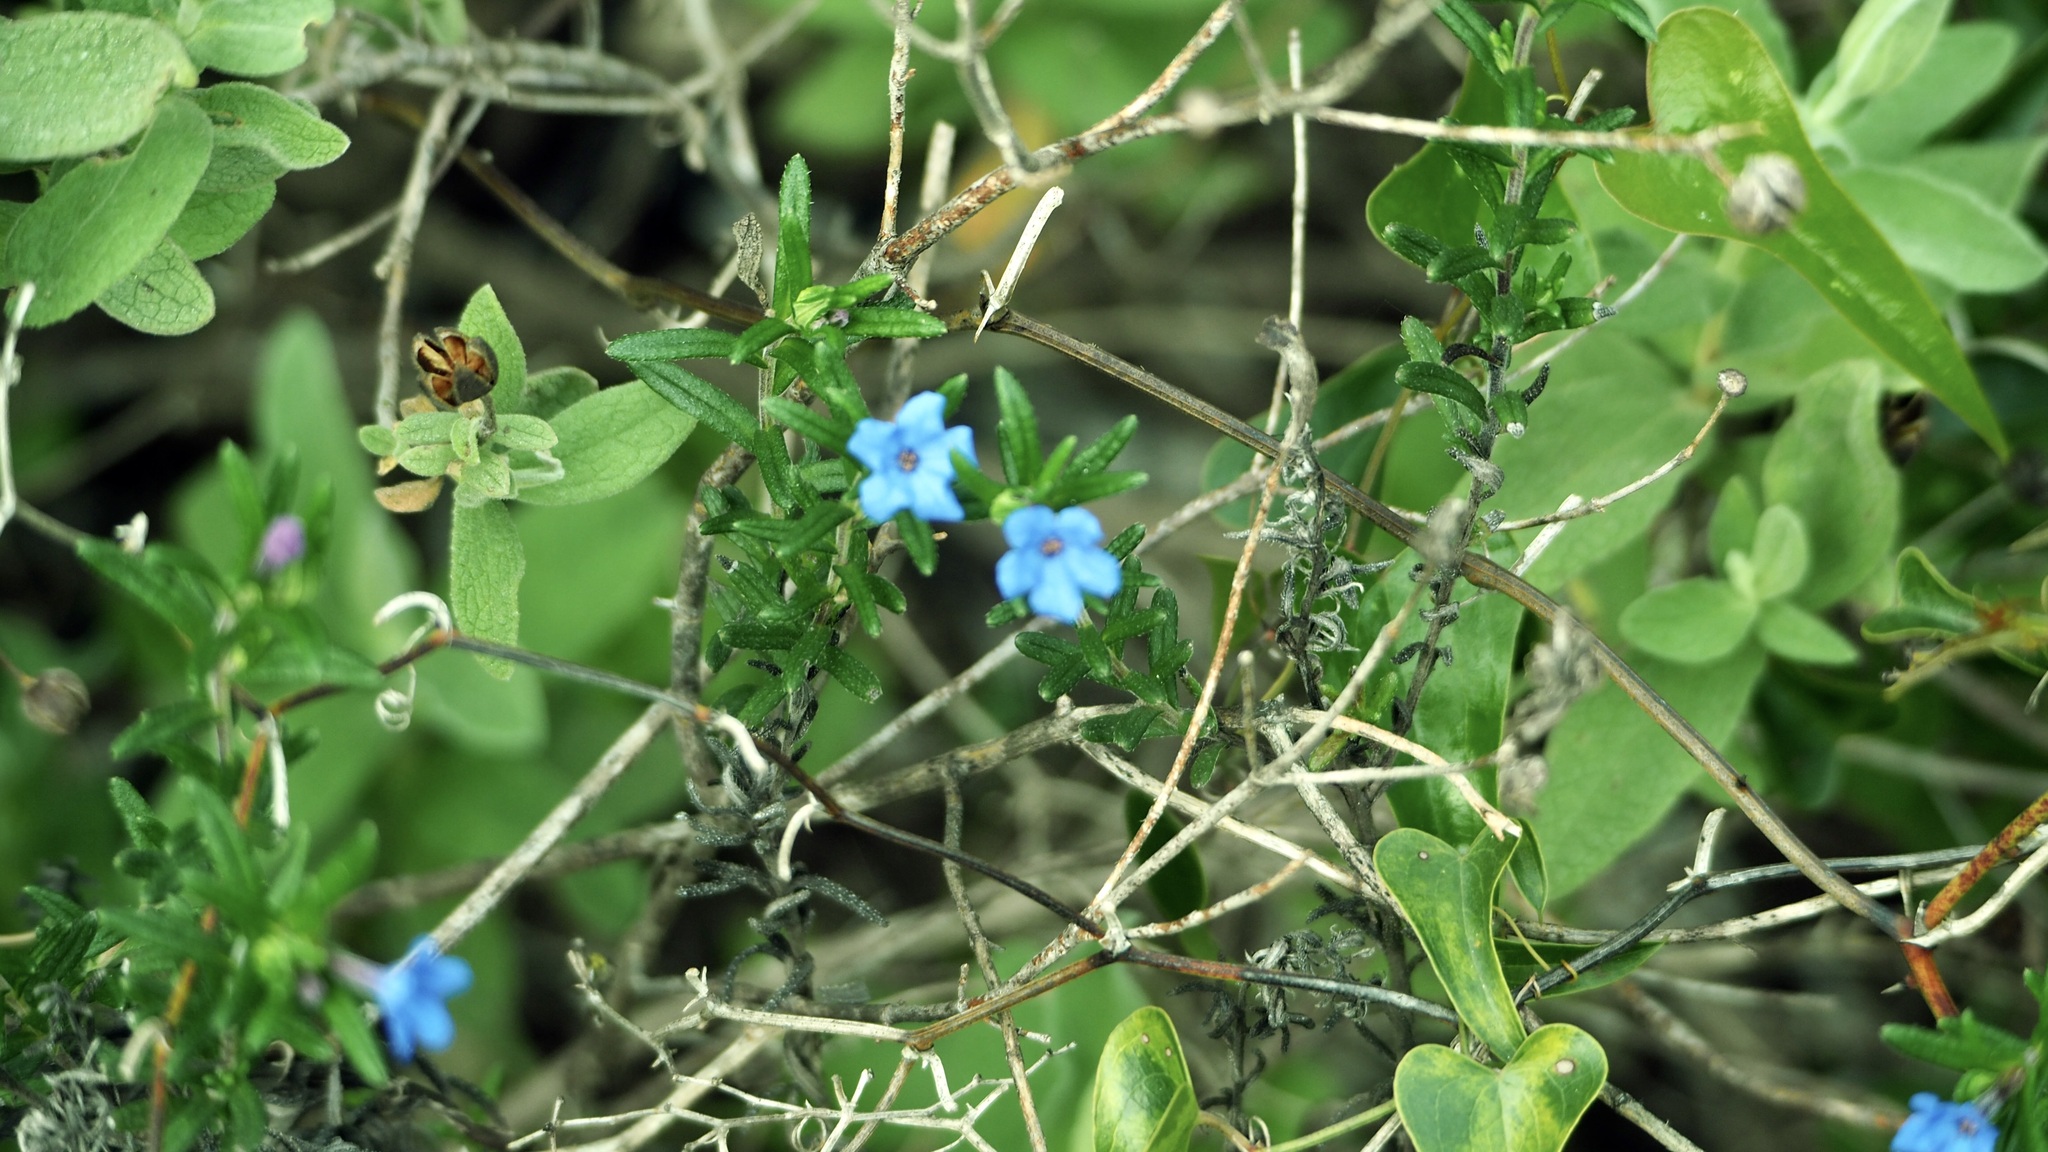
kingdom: Plantae
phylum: Tracheophyta
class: Magnoliopsida
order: Boraginales
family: Boraginaceae
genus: Glandora
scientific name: Glandora prostrata
